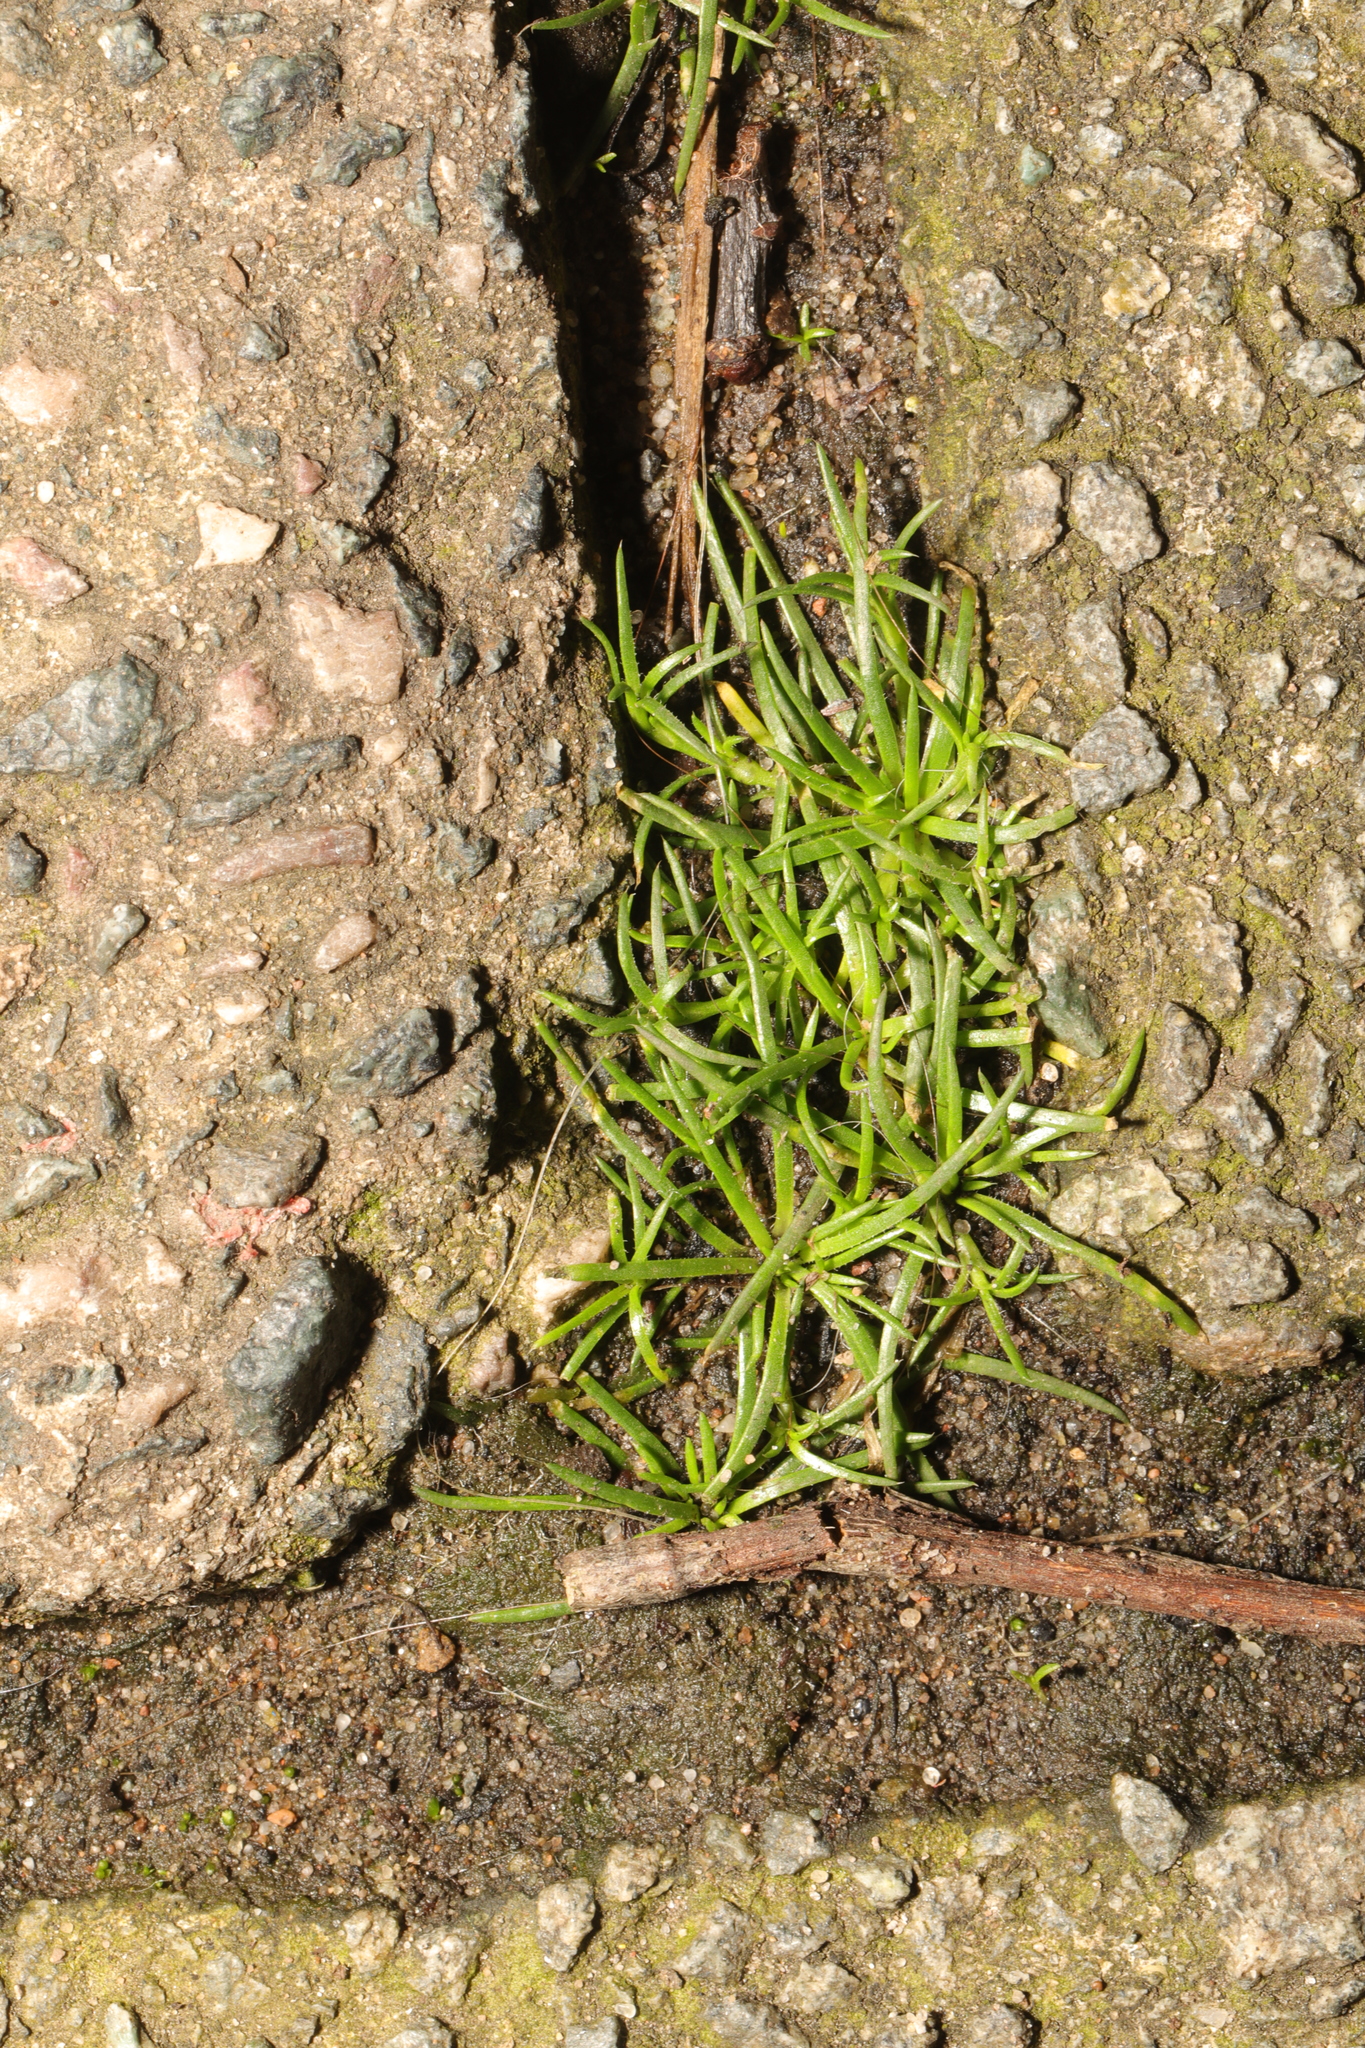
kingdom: Plantae
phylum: Tracheophyta
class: Magnoliopsida
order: Caryophyllales
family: Caryophyllaceae
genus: Sagina
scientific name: Sagina procumbens
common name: Procumbent pearlwort
